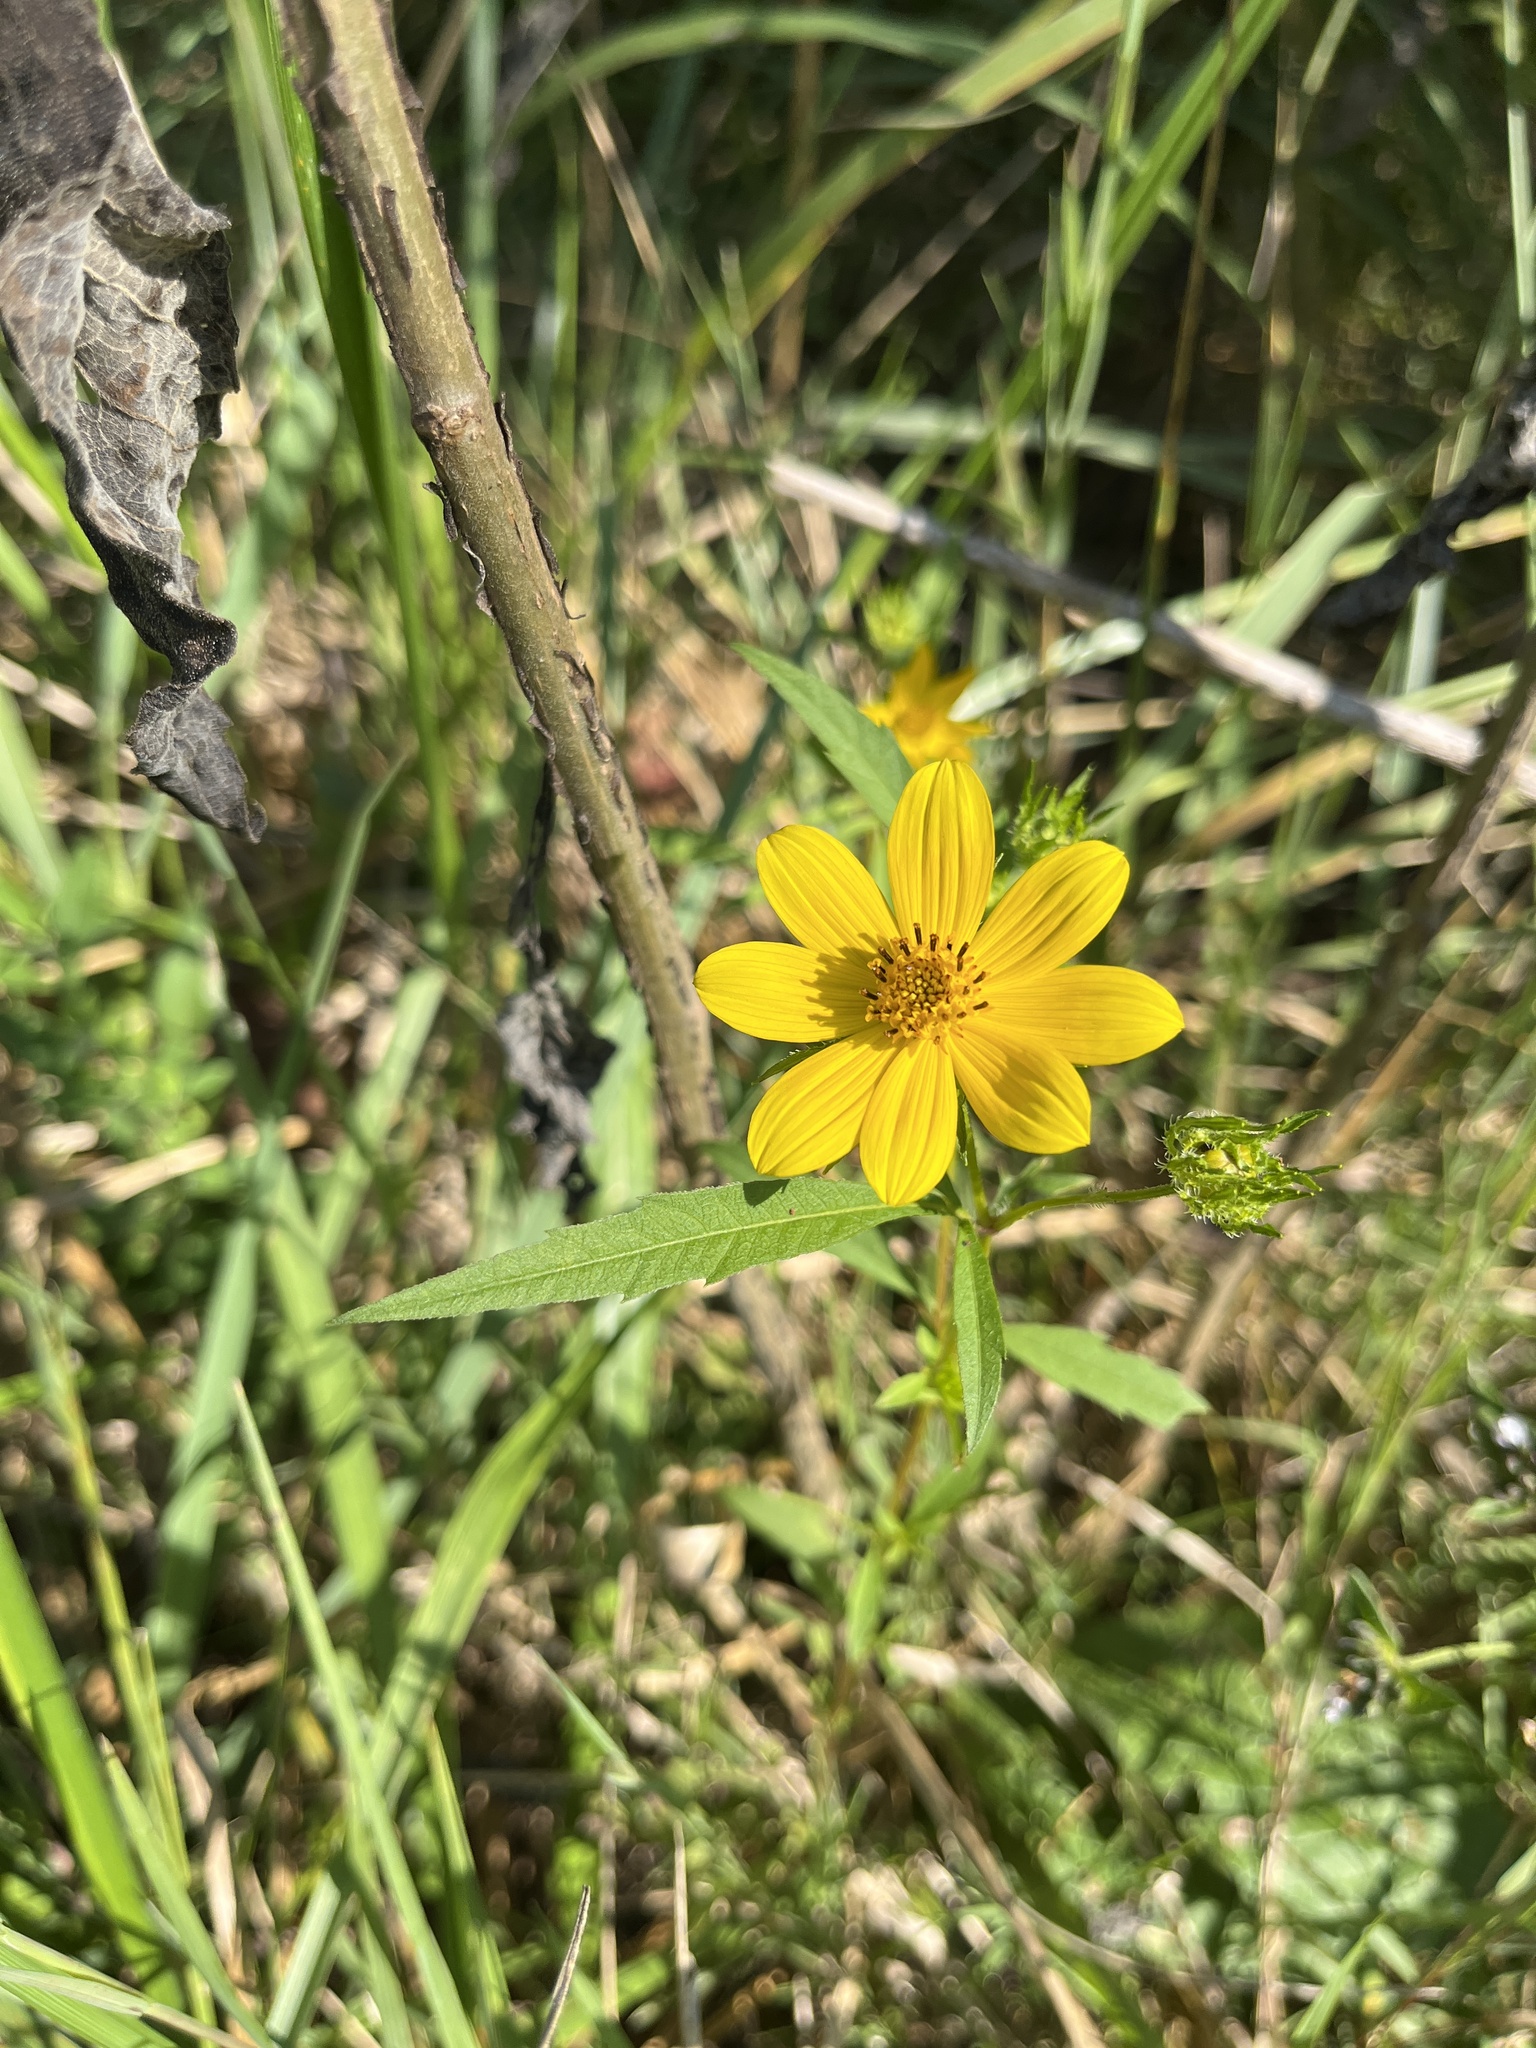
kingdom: Plantae
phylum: Tracheophyta
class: Magnoliopsida
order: Asterales
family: Asteraceae
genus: Bidens
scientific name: Bidens polylepis
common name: Awnless beggarticks
